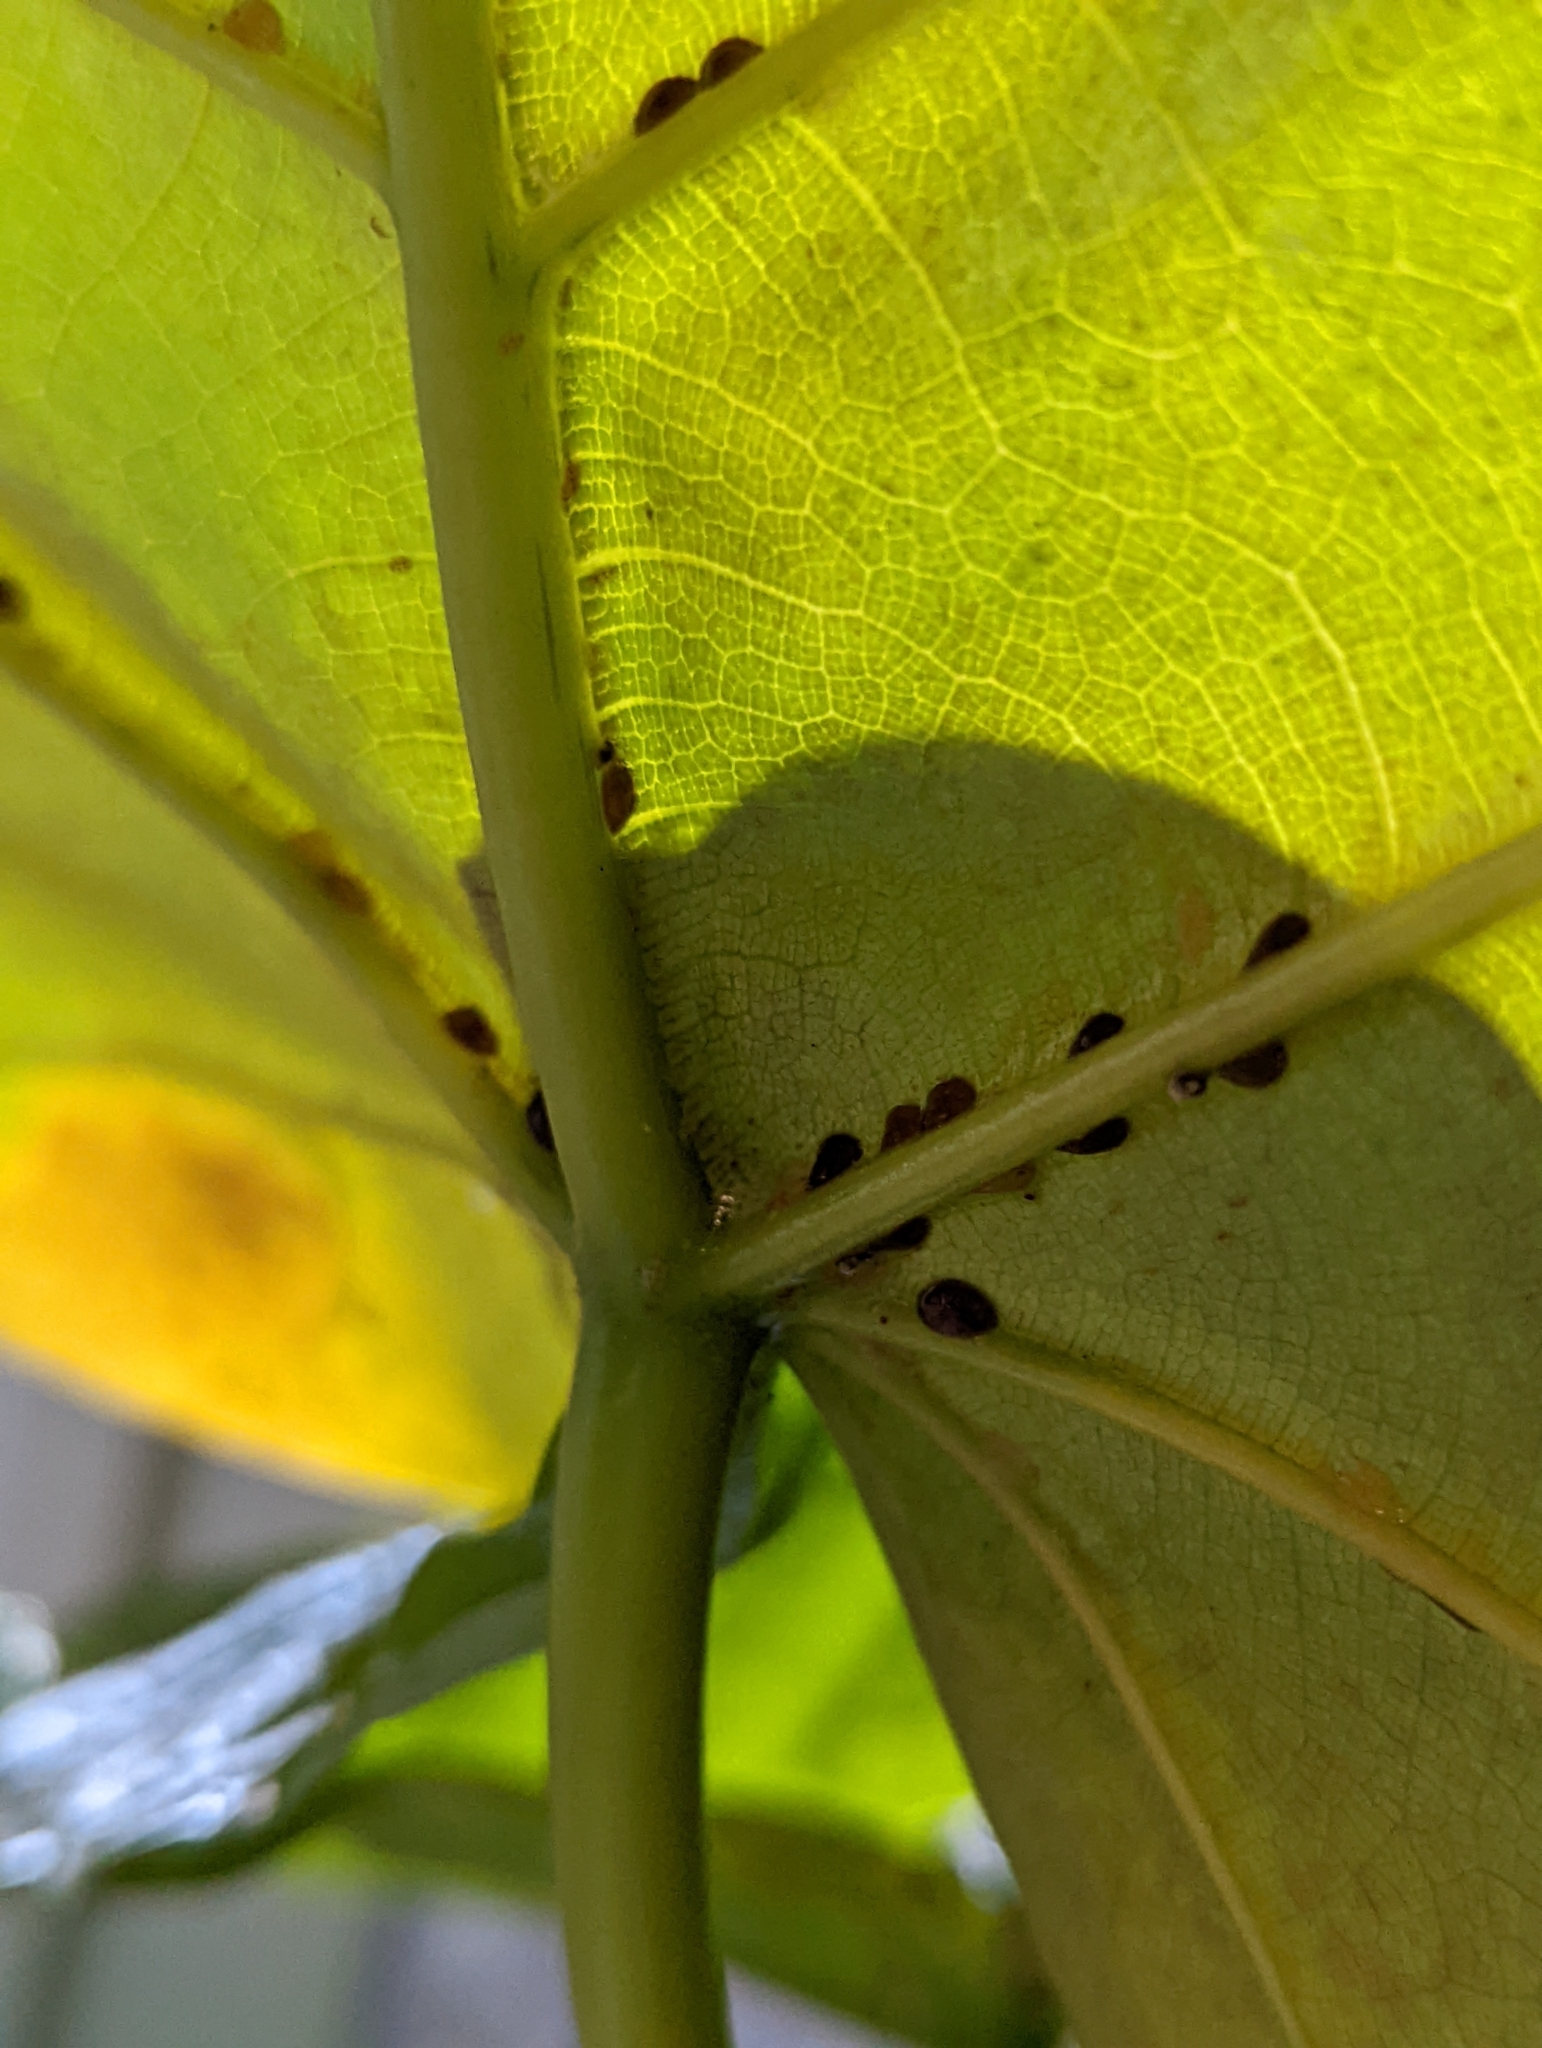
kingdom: Animalia
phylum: Arthropoda
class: Insecta
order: Hemiptera
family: Coccidae
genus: Parasaissetia
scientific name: Parasaissetia nigra
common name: Black scale
